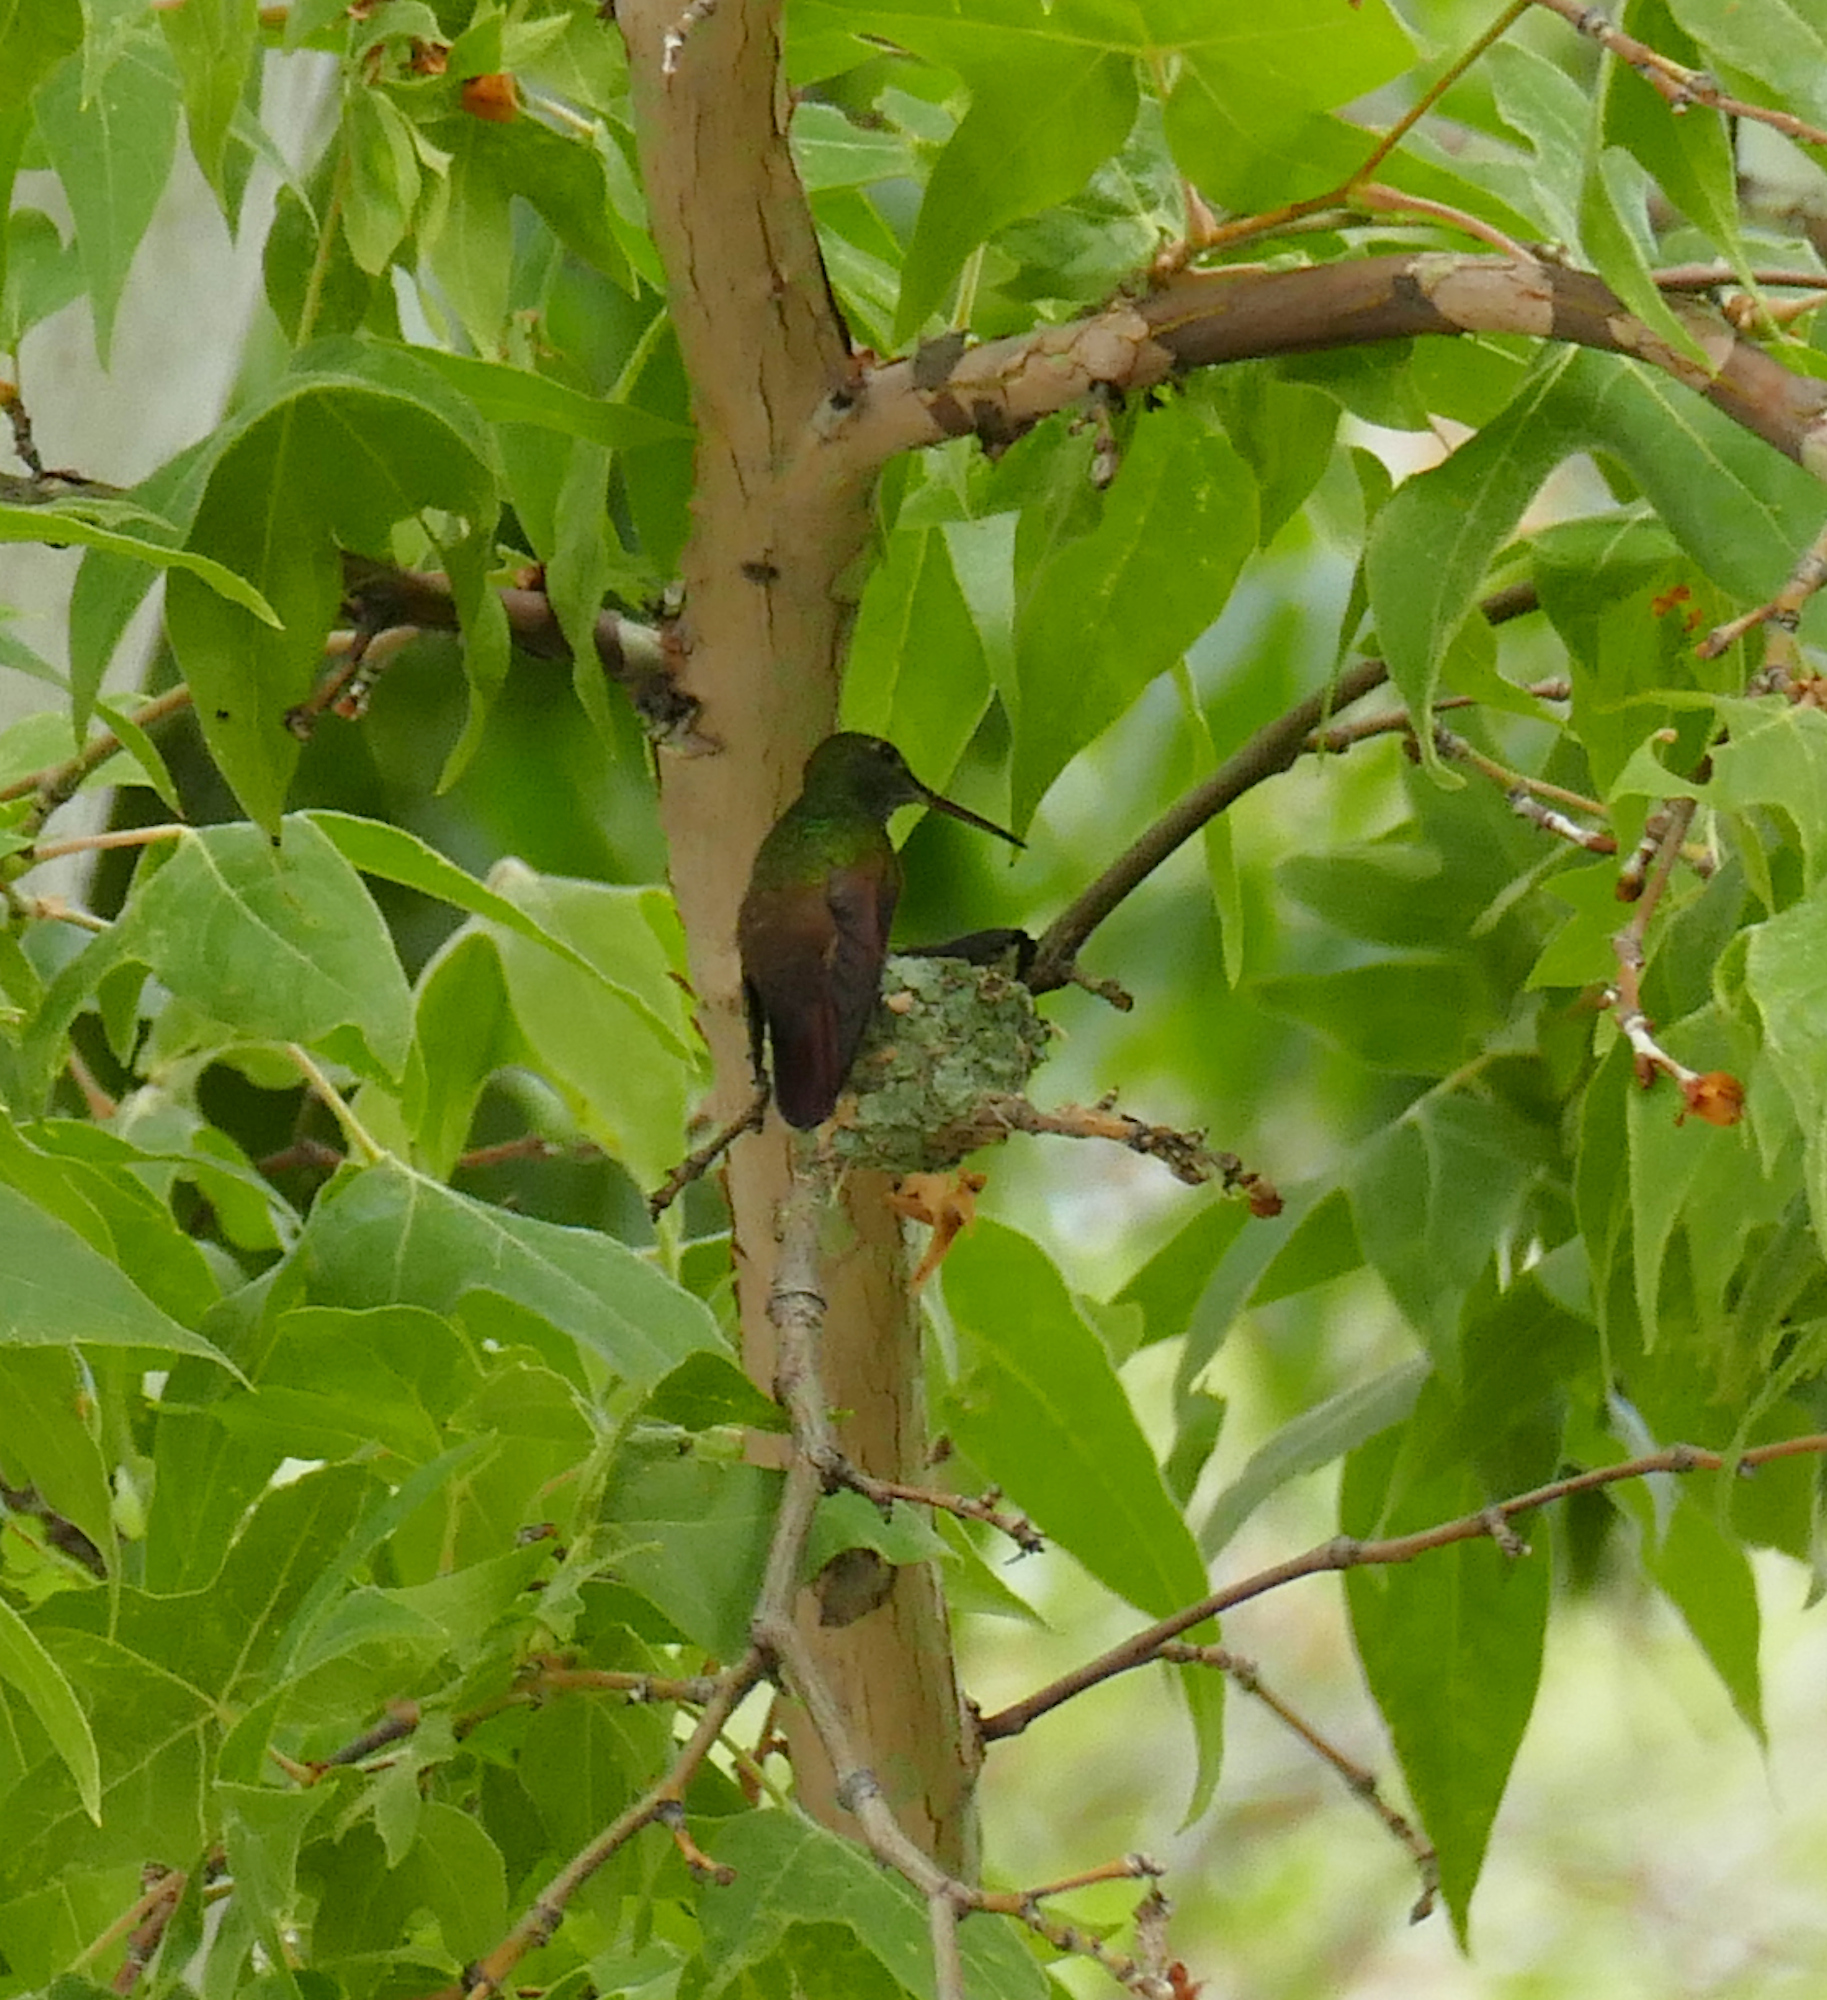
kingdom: Animalia
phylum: Chordata
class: Aves
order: Apodiformes
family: Trochilidae
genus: Saucerottia
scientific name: Saucerottia beryllina
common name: Berylline hummingbird
